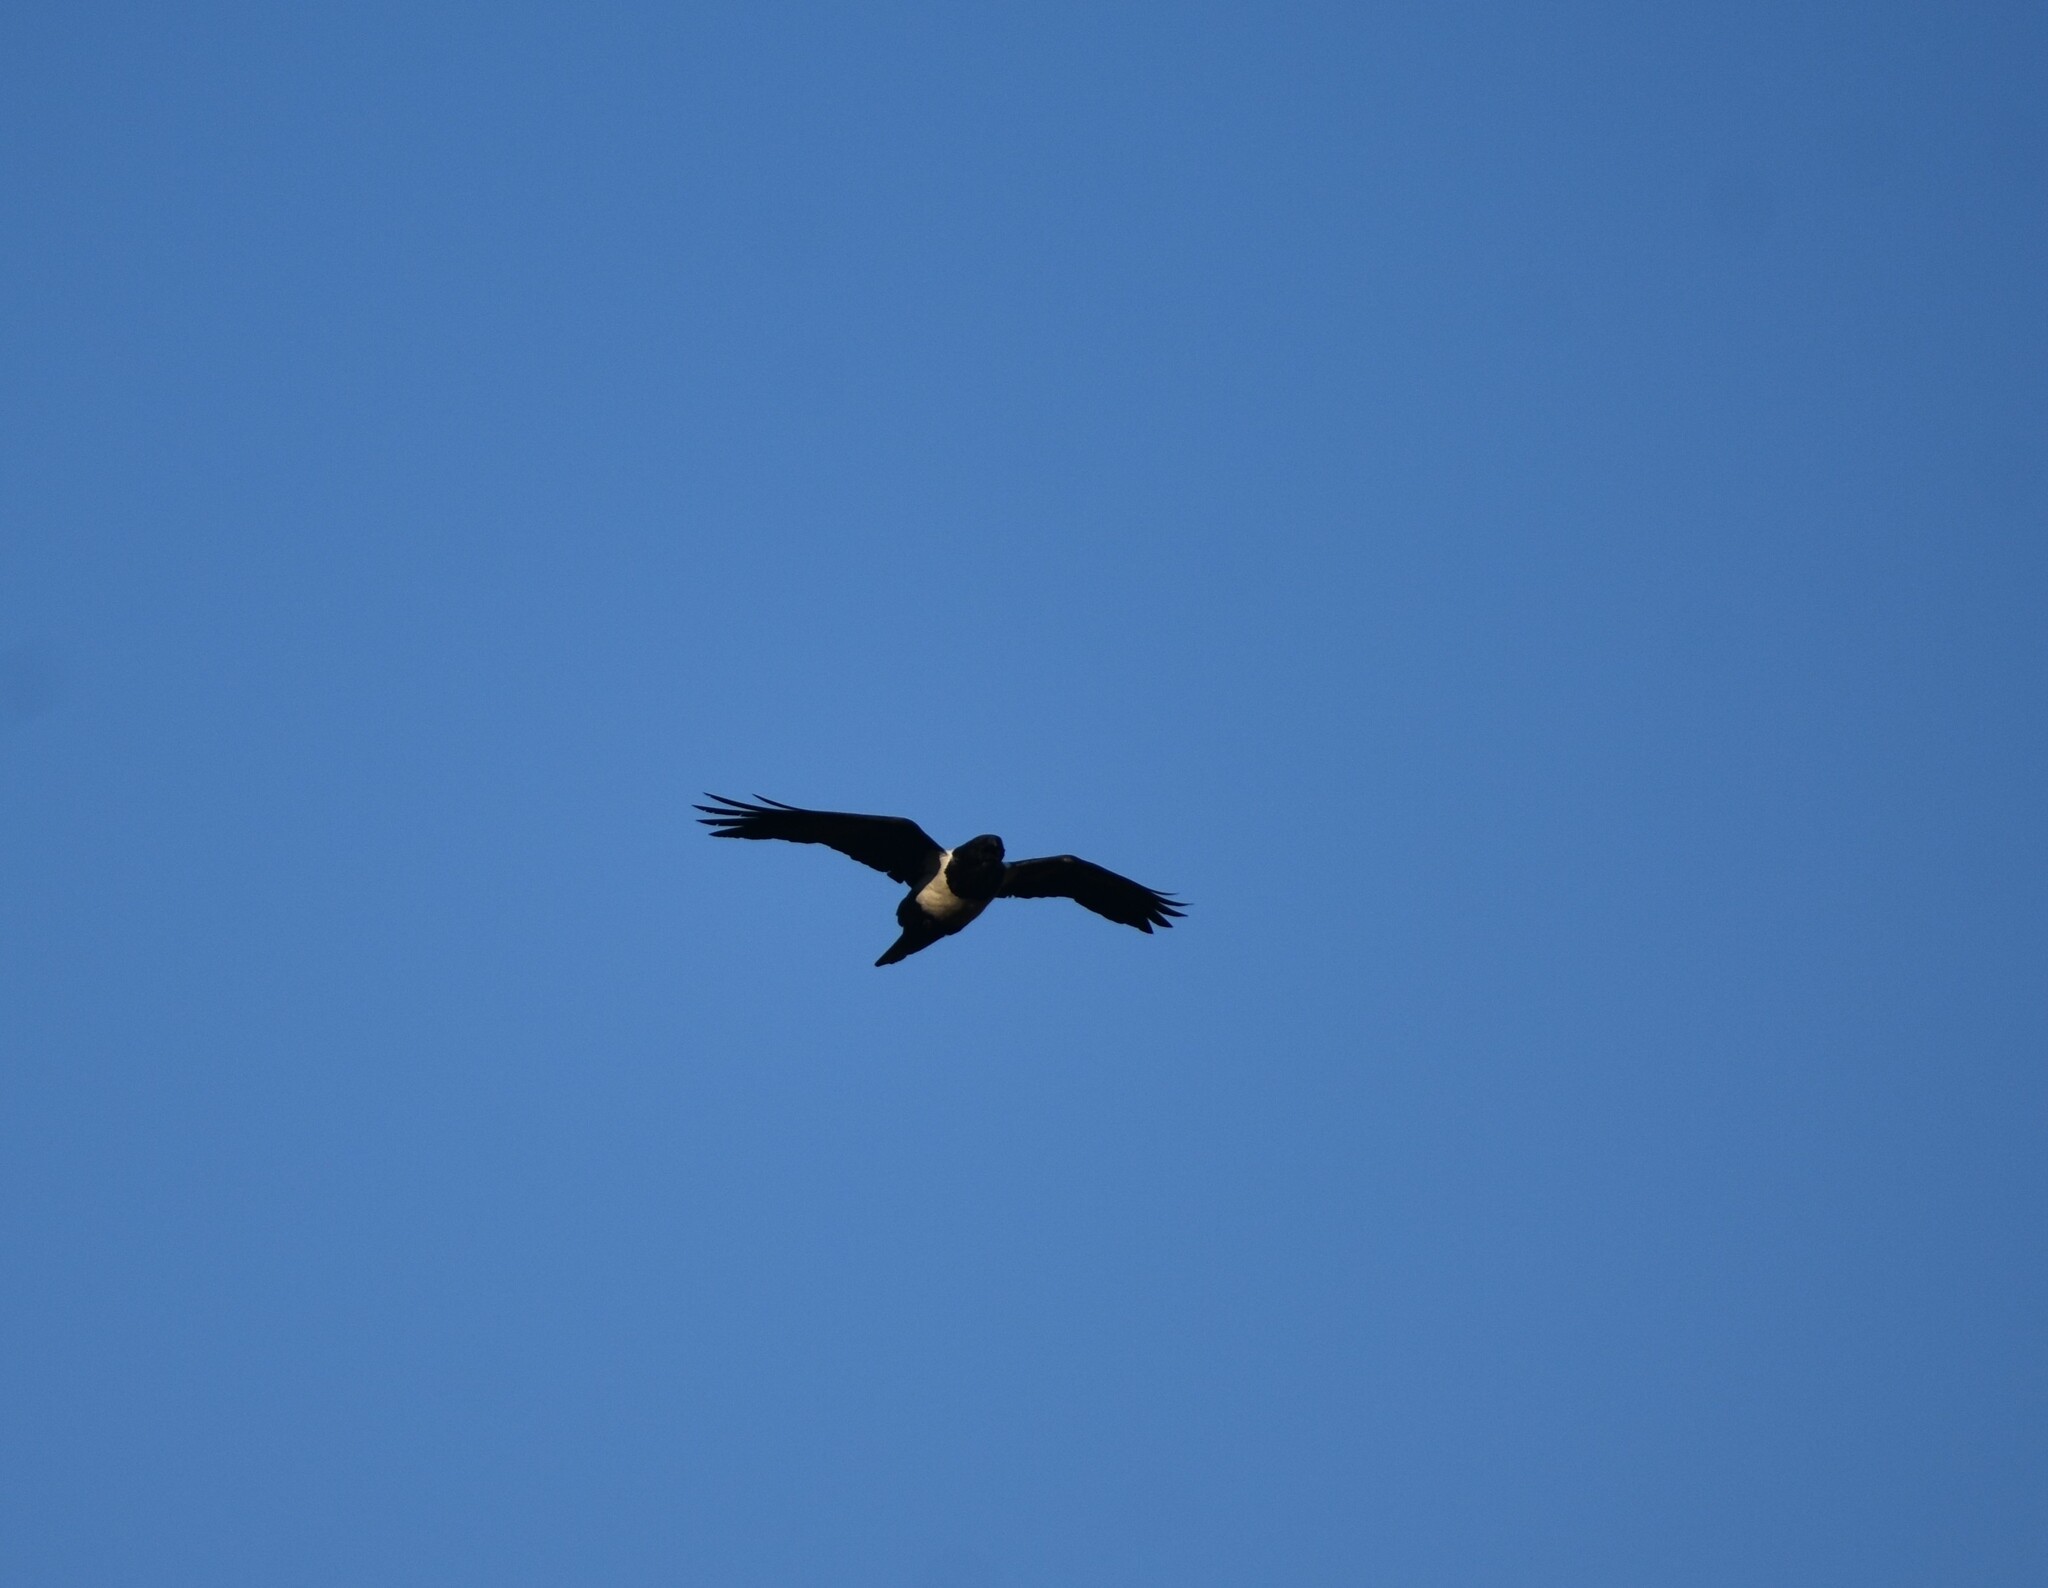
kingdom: Animalia
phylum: Chordata
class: Aves
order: Passeriformes
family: Corvidae
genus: Corvus
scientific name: Corvus albus
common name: Pied crow
